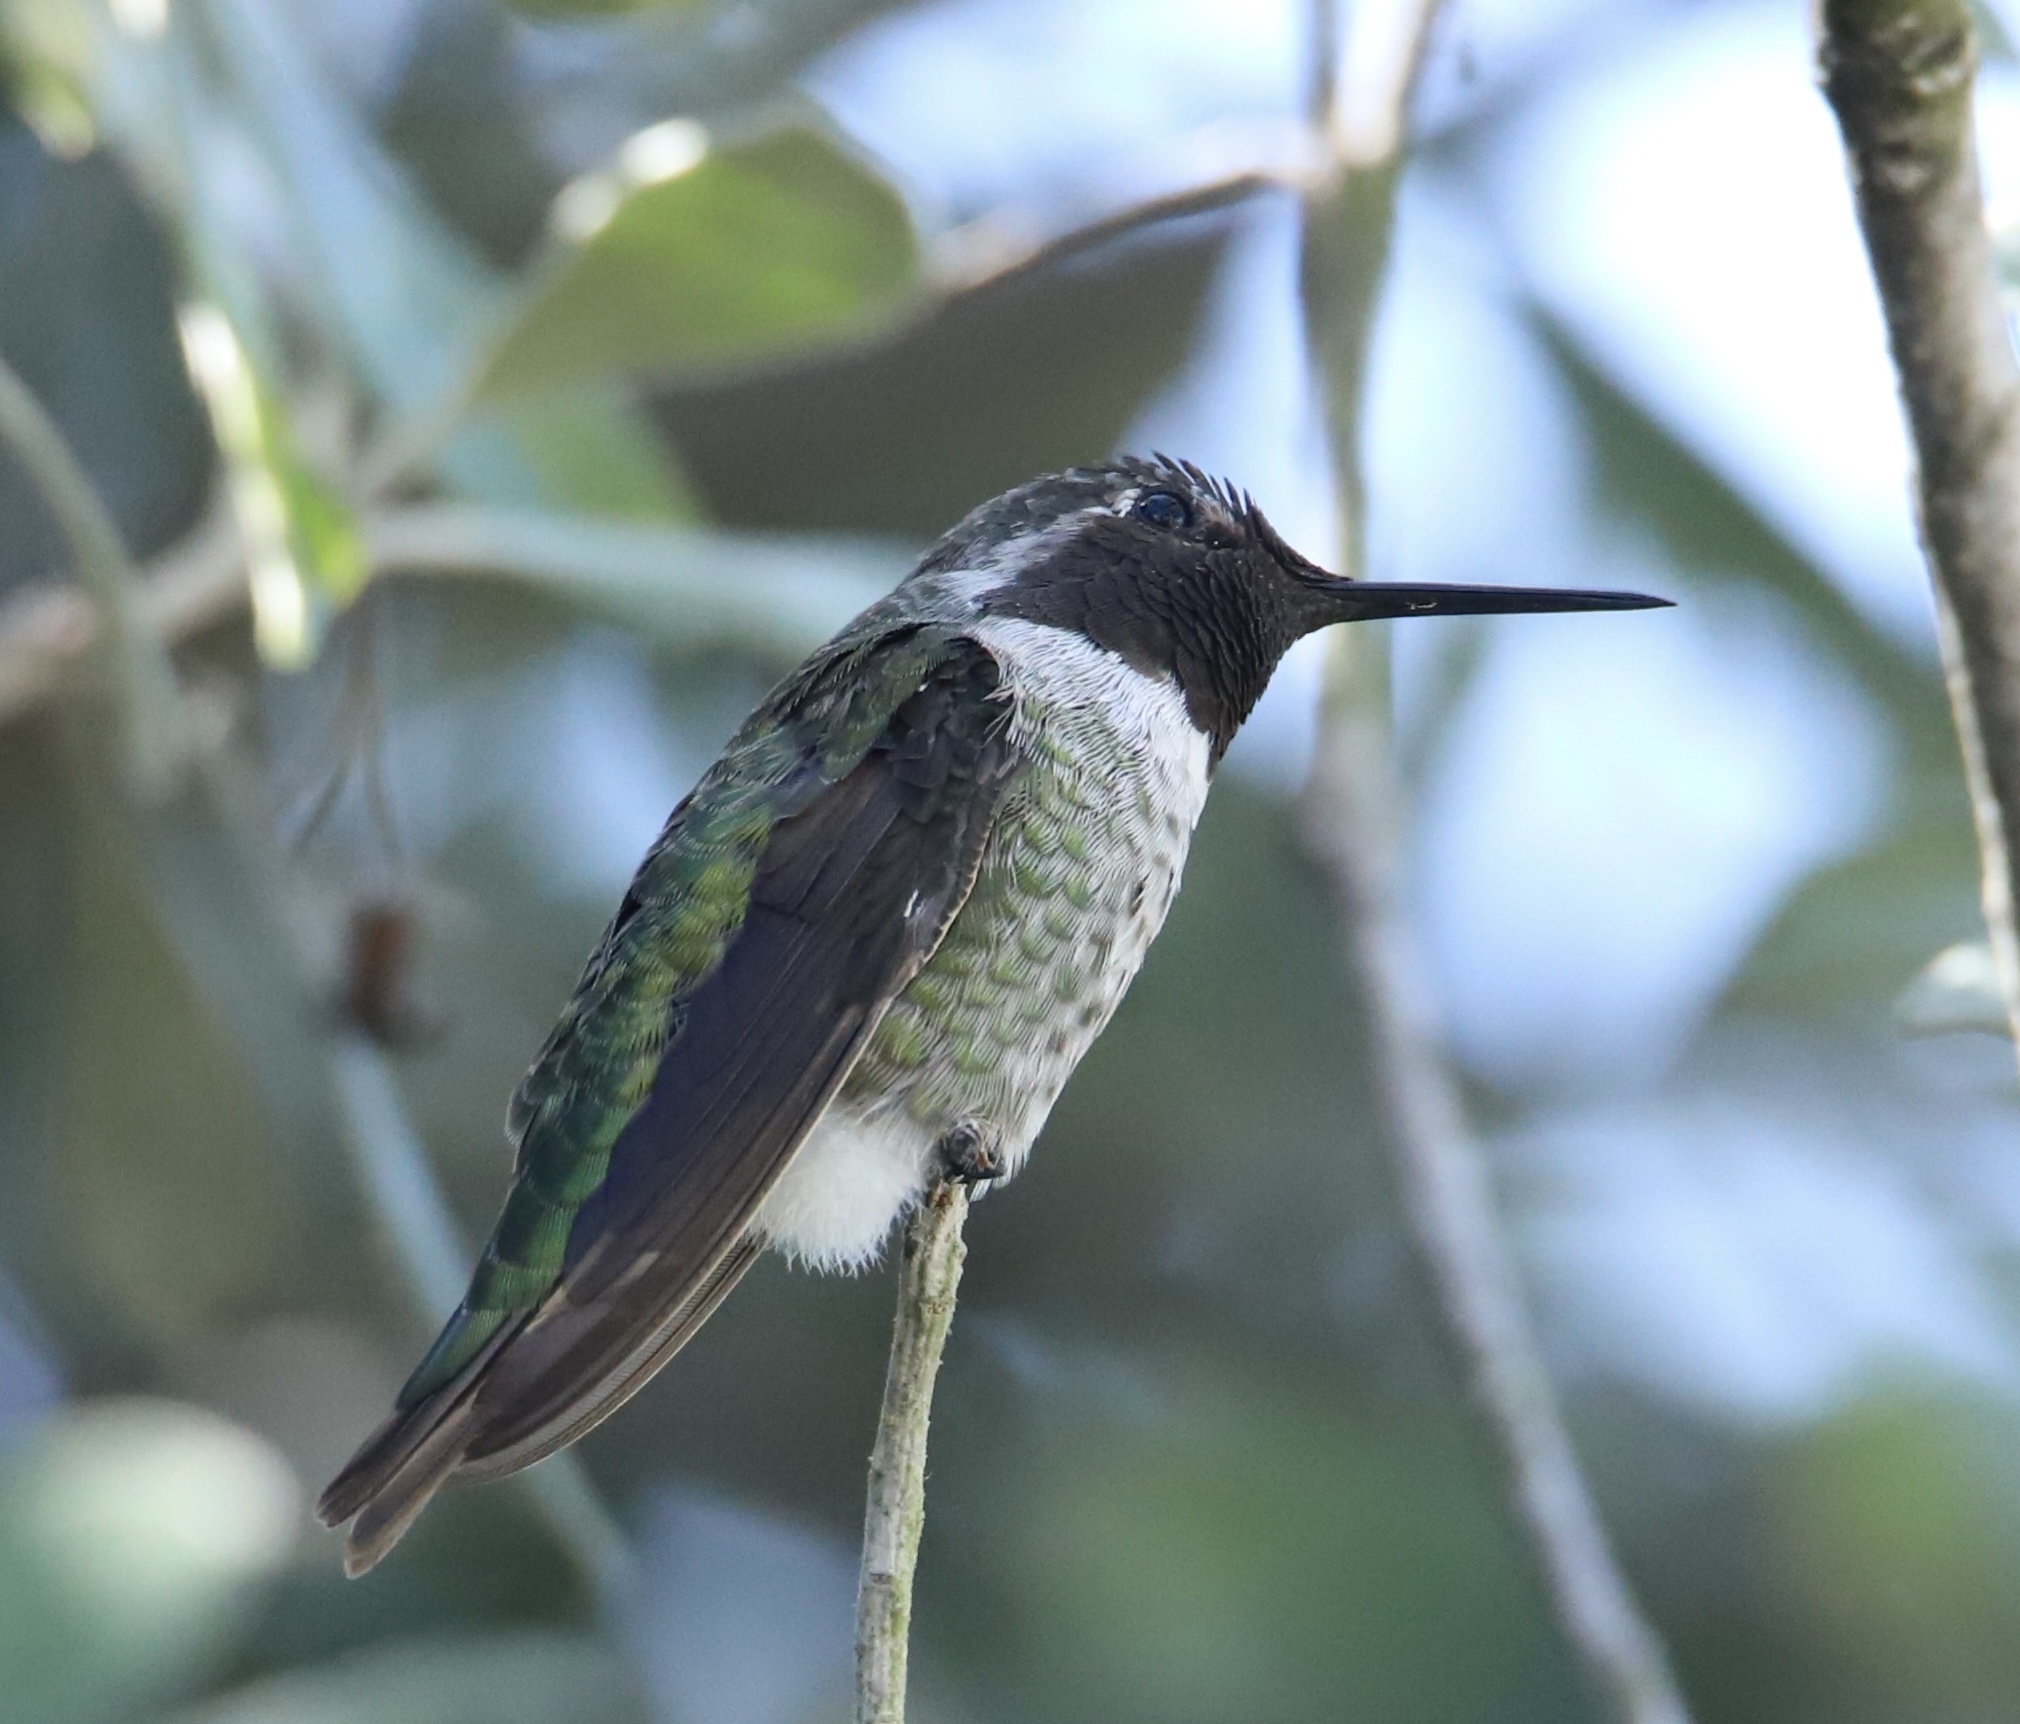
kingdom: Animalia
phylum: Chordata
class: Aves
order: Apodiformes
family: Trochilidae
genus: Calypte
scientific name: Calypte anna
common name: Anna's hummingbird
